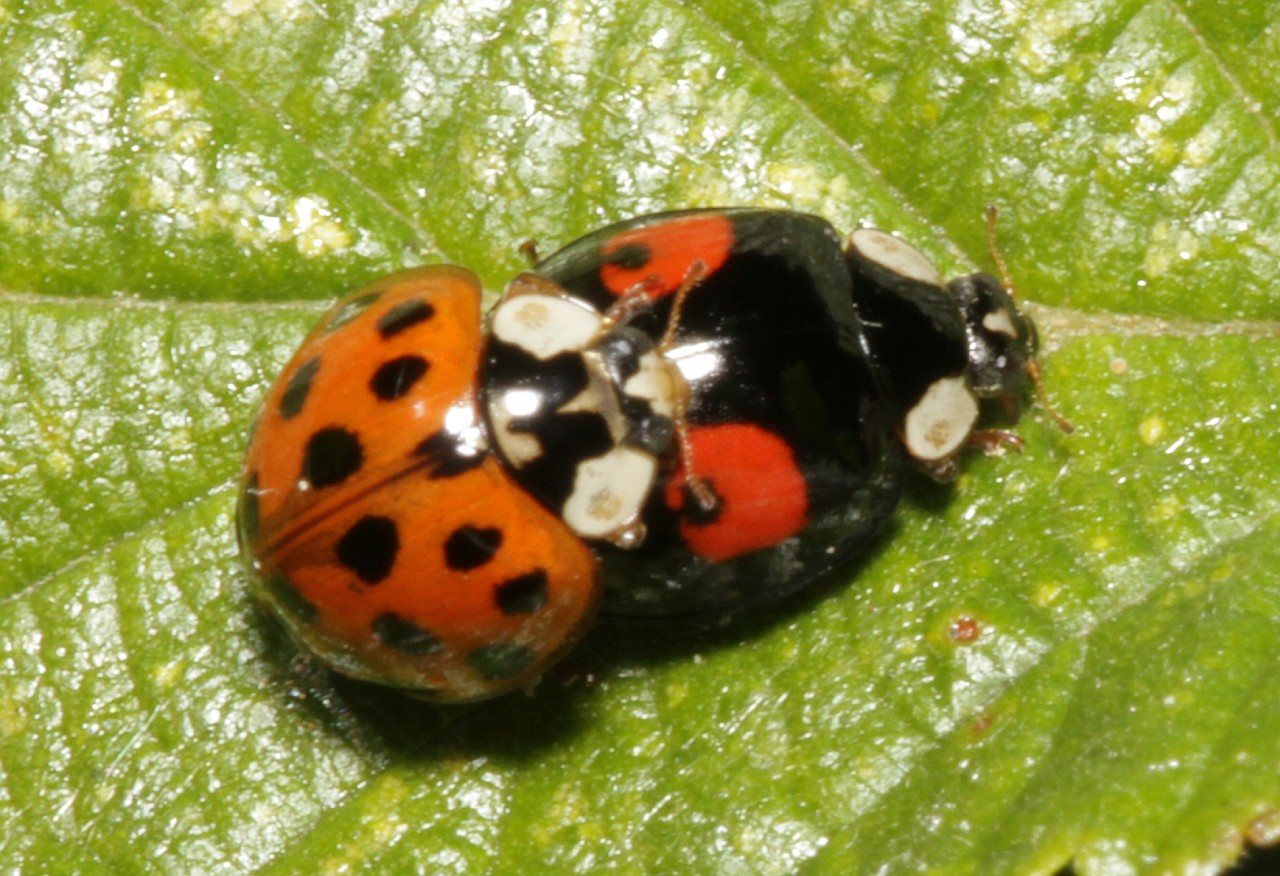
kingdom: Animalia
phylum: Arthropoda
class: Insecta
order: Coleoptera
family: Coccinellidae
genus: Harmonia
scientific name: Harmonia axyridis
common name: Harlequin ladybird
